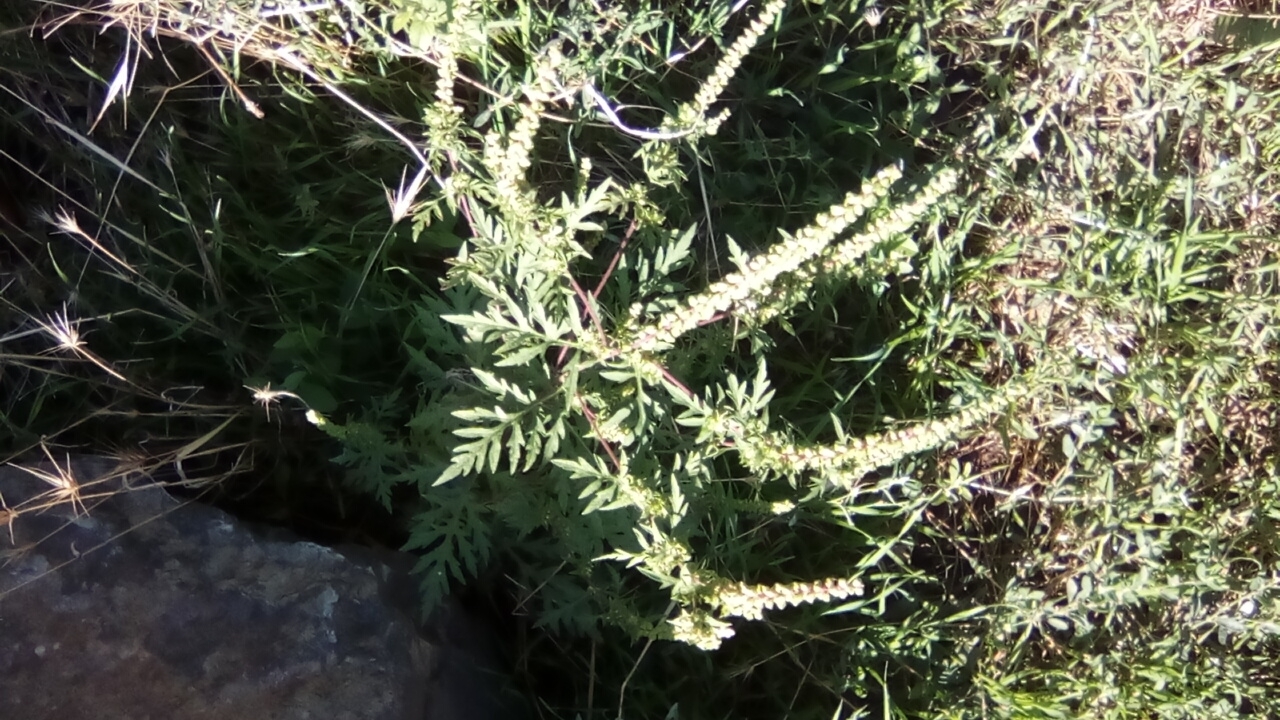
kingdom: Plantae
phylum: Tracheophyta
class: Magnoliopsida
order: Asterales
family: Asteraceae
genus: Ambrosia
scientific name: Ambrosia artemisiifolia
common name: Annual ragweed
